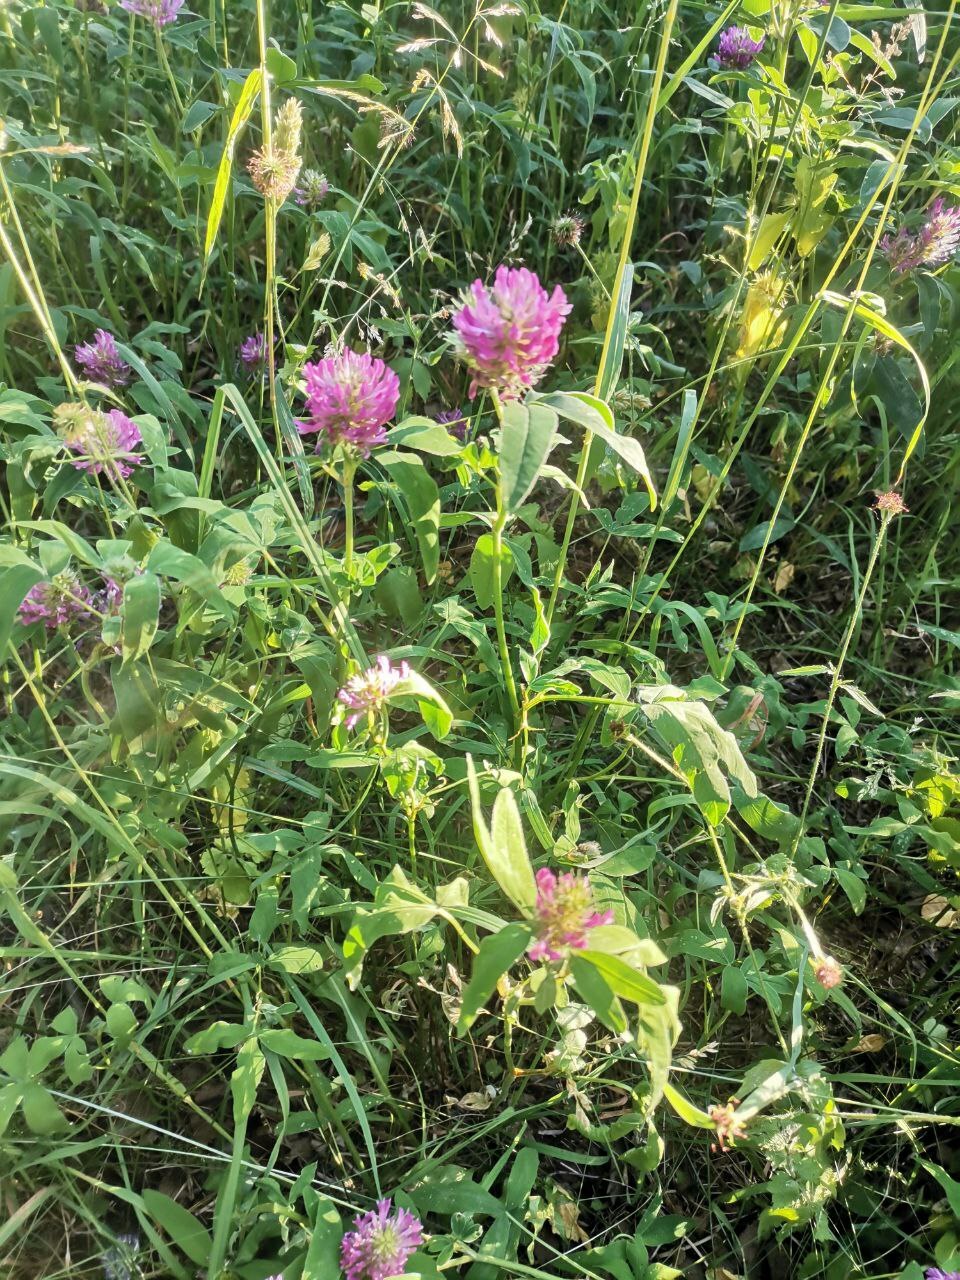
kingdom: Plantae
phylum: Tracheophyta
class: Magnoliopsida
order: Fabales
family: Fabaceae
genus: Trifolium
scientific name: Trifolium medium
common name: Zigzag clover
